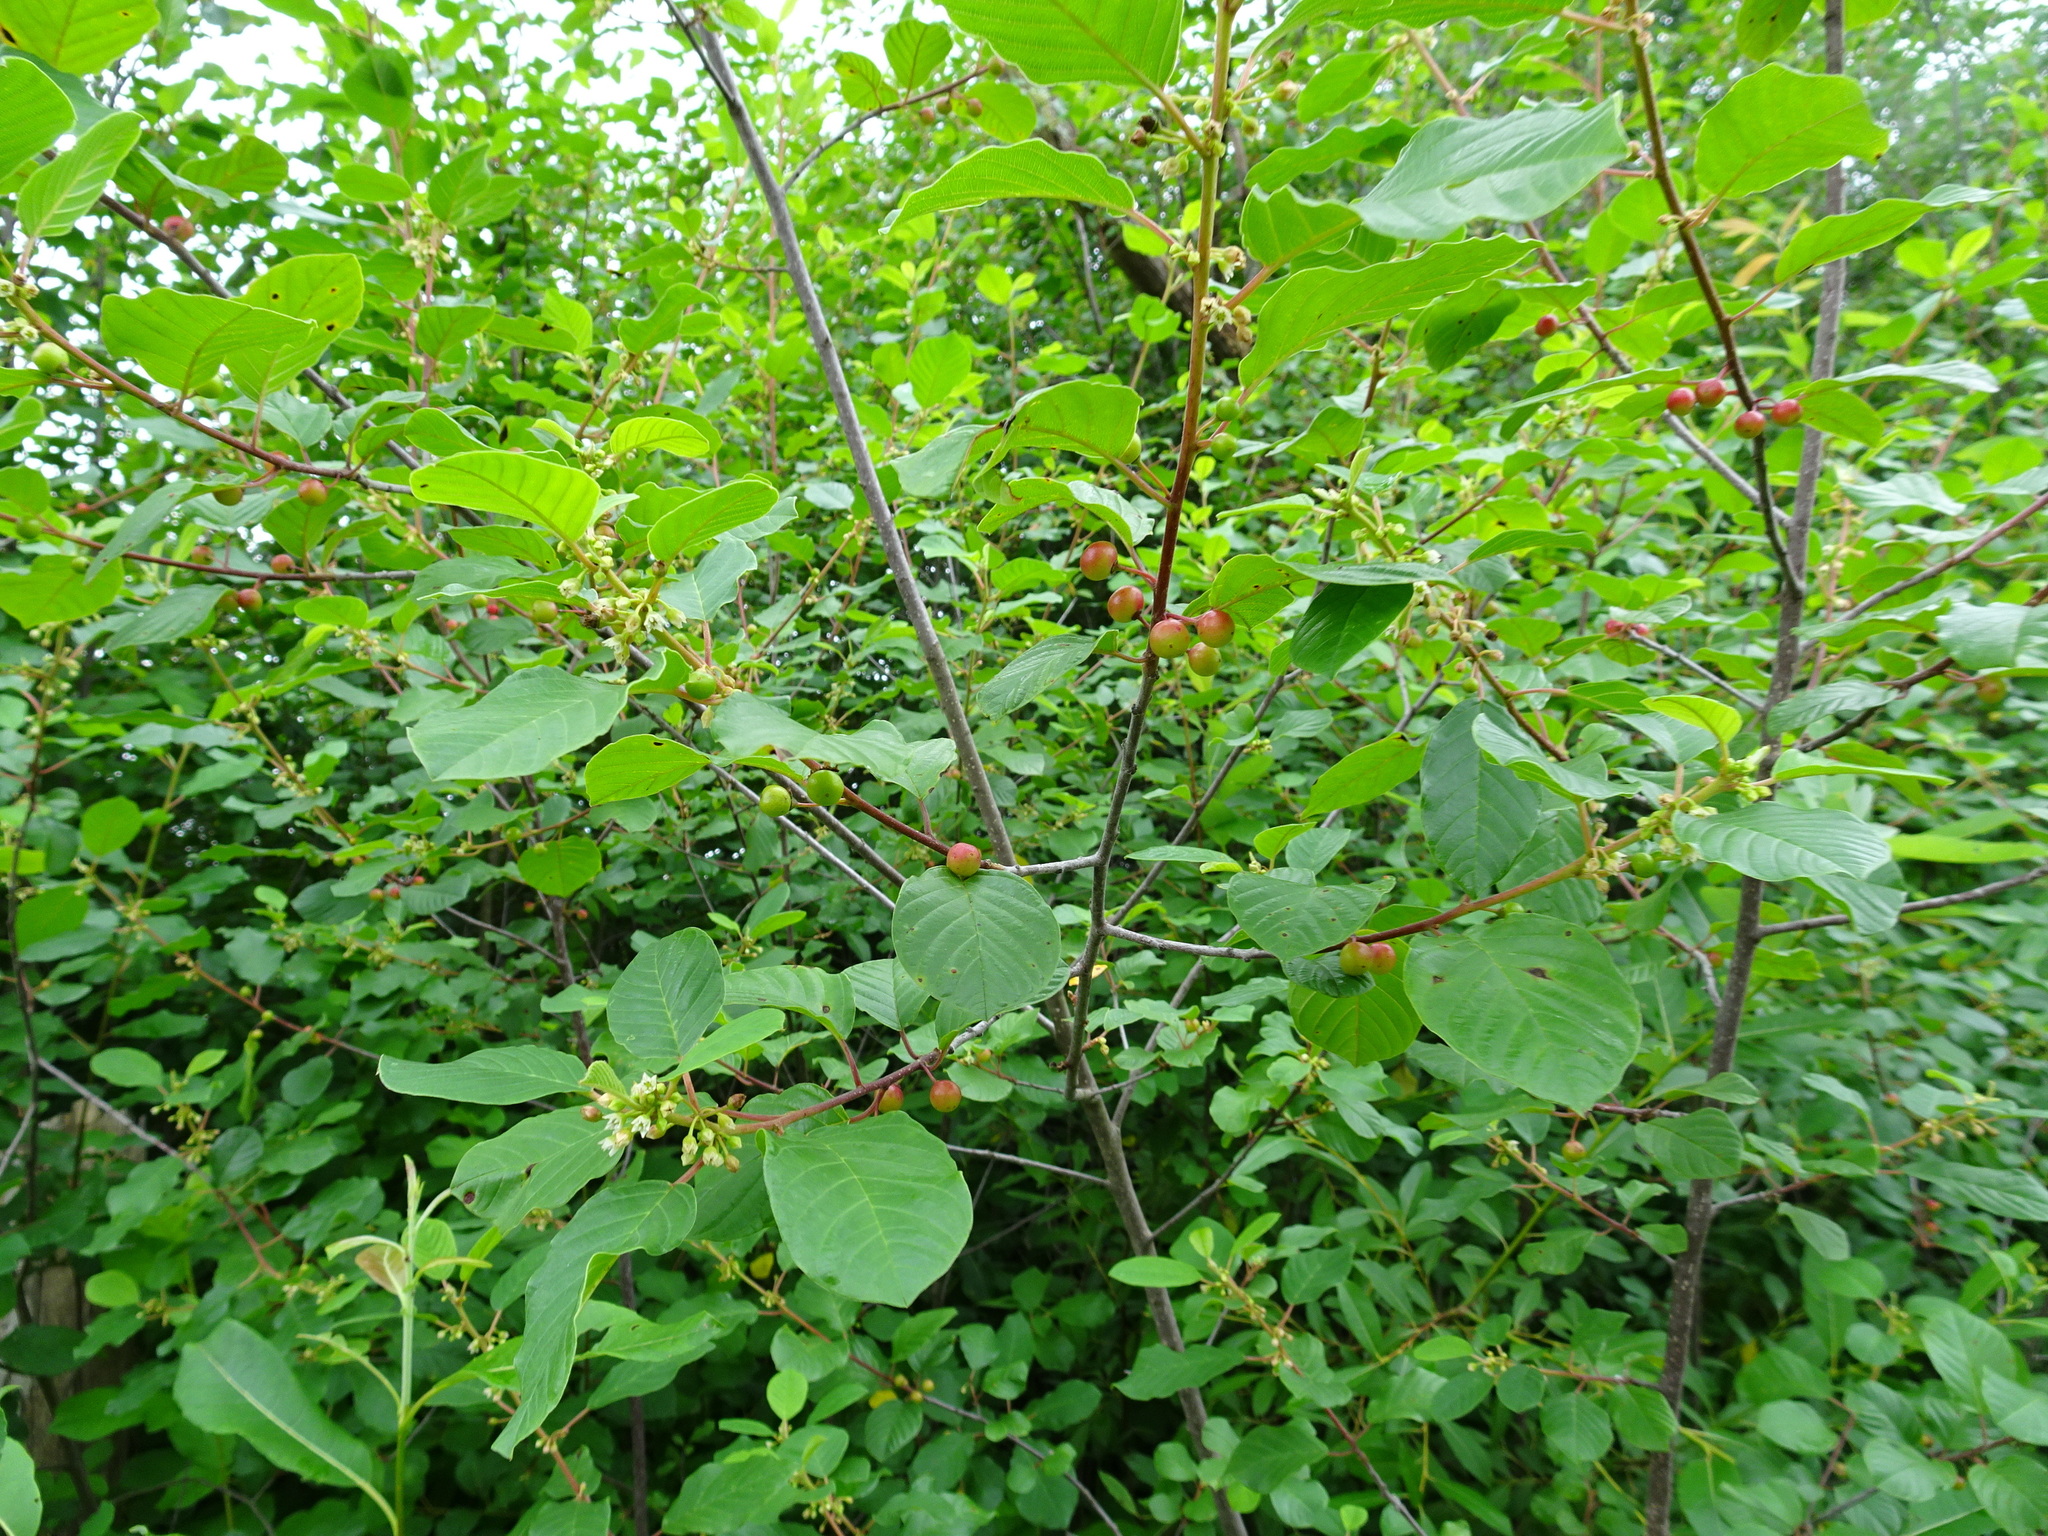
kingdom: Plantae
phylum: Tracheophyta
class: Magnoliopsida
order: Rosales
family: Rhamnaceae
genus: Frangula
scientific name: Frangula alnus
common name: Alder buckthorn
